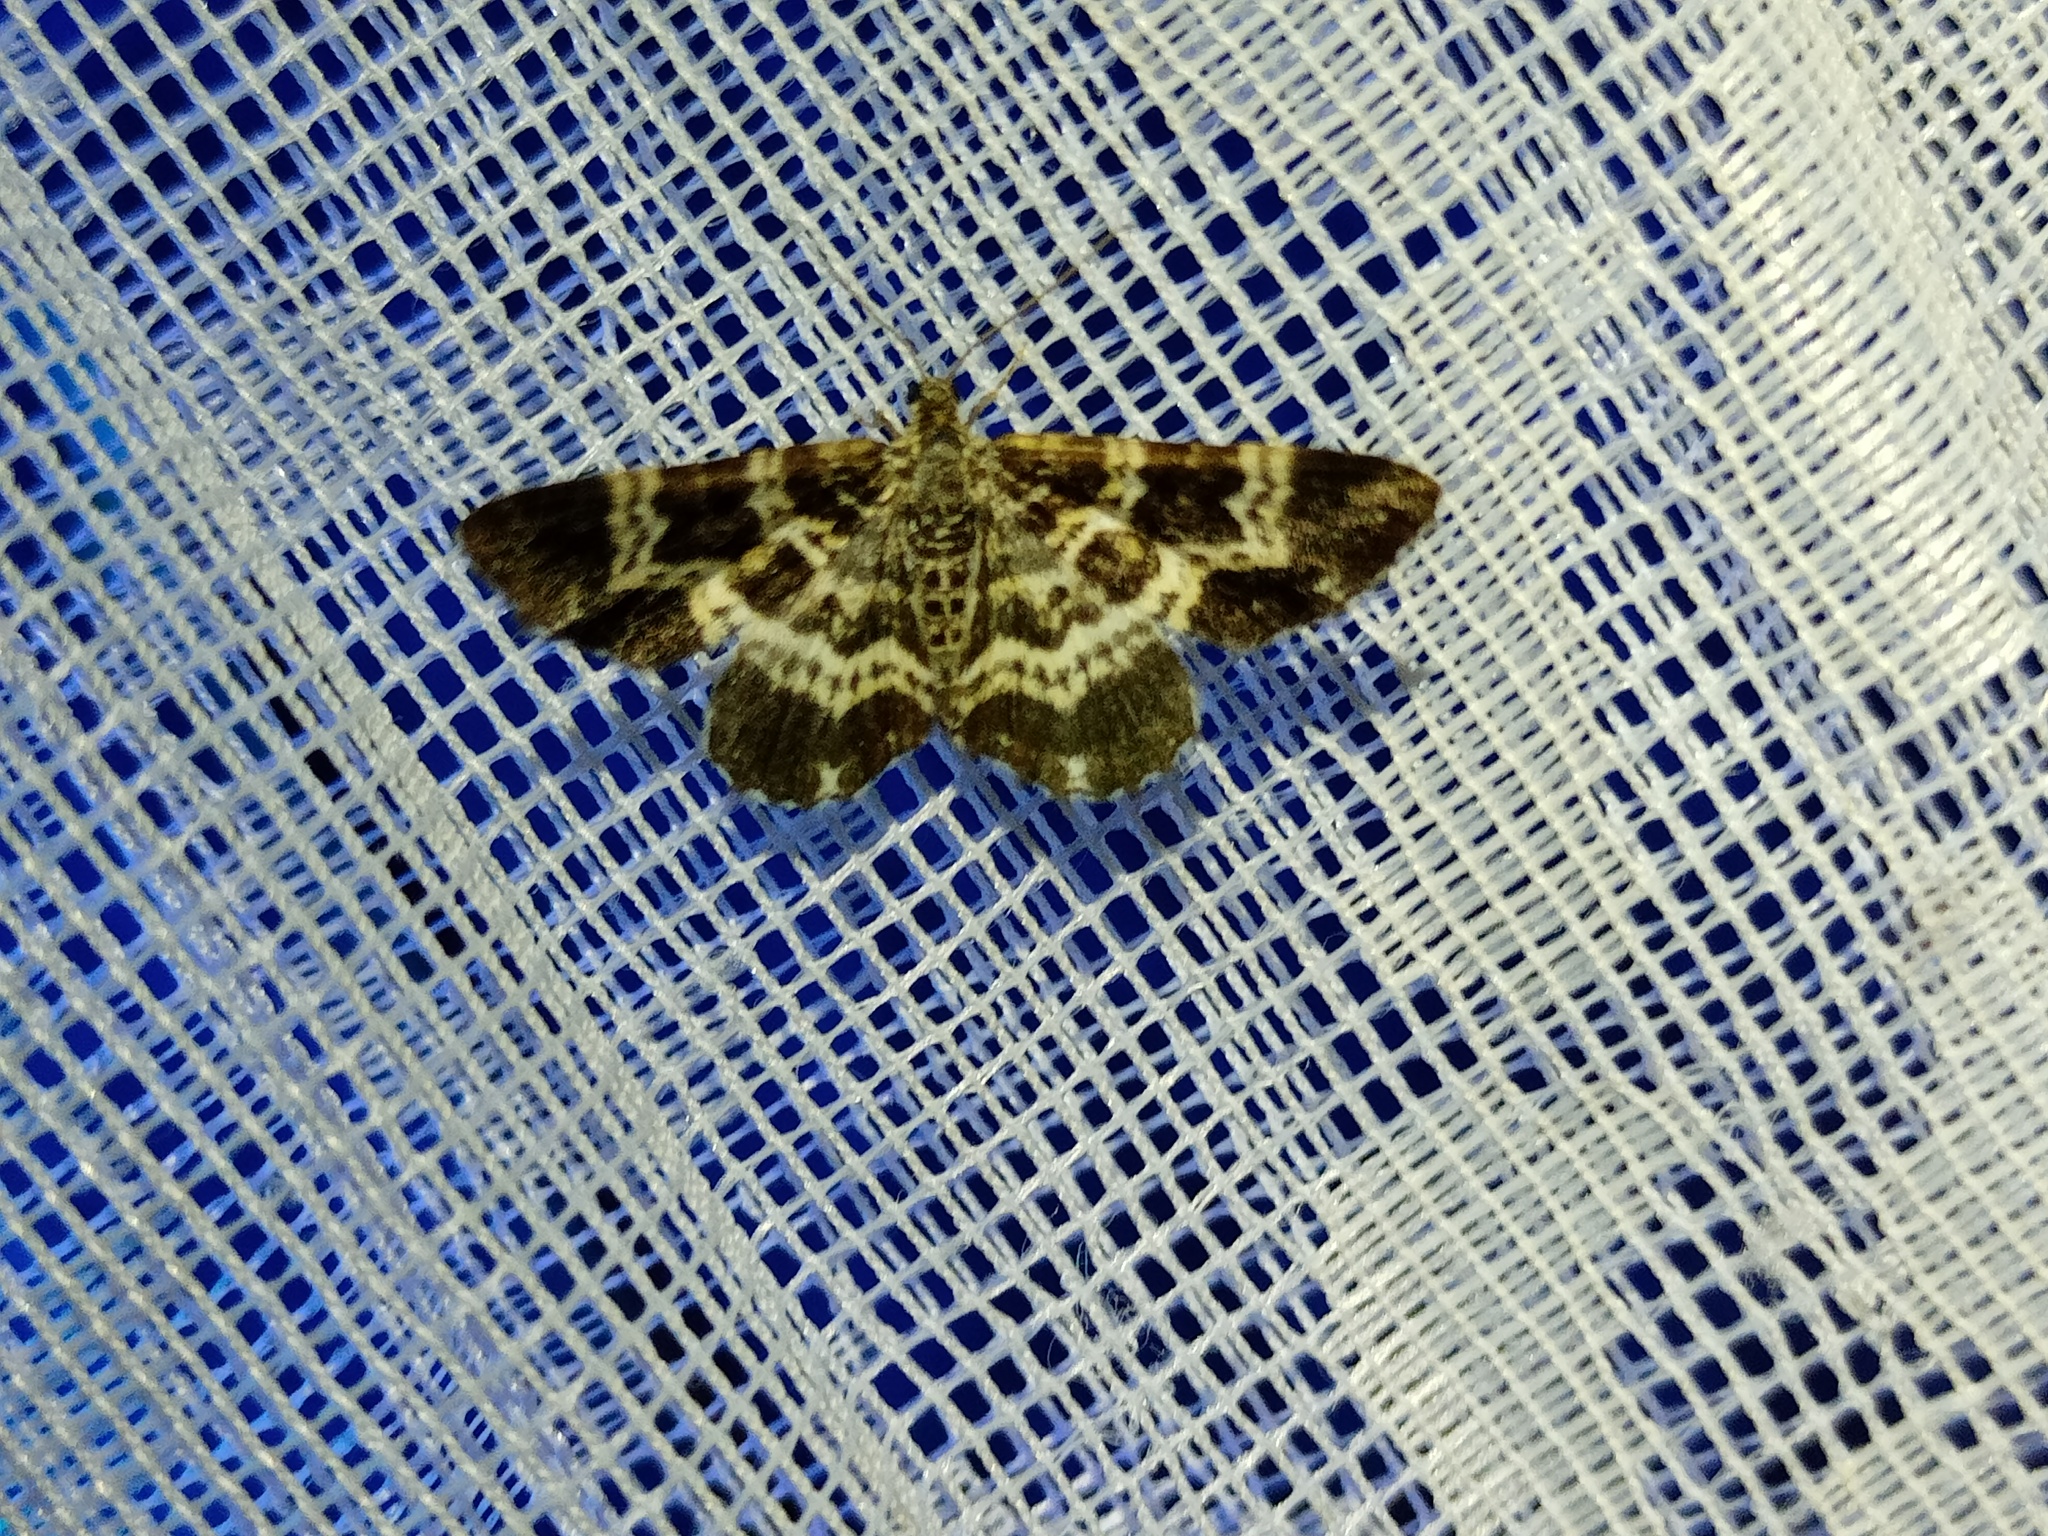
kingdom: Animalia
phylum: Arthropoda
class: Insecta
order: Lepidoptera
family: Geometridae
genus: Epirrhoe
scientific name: Epirrhoe tristata
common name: Small argent & sable
